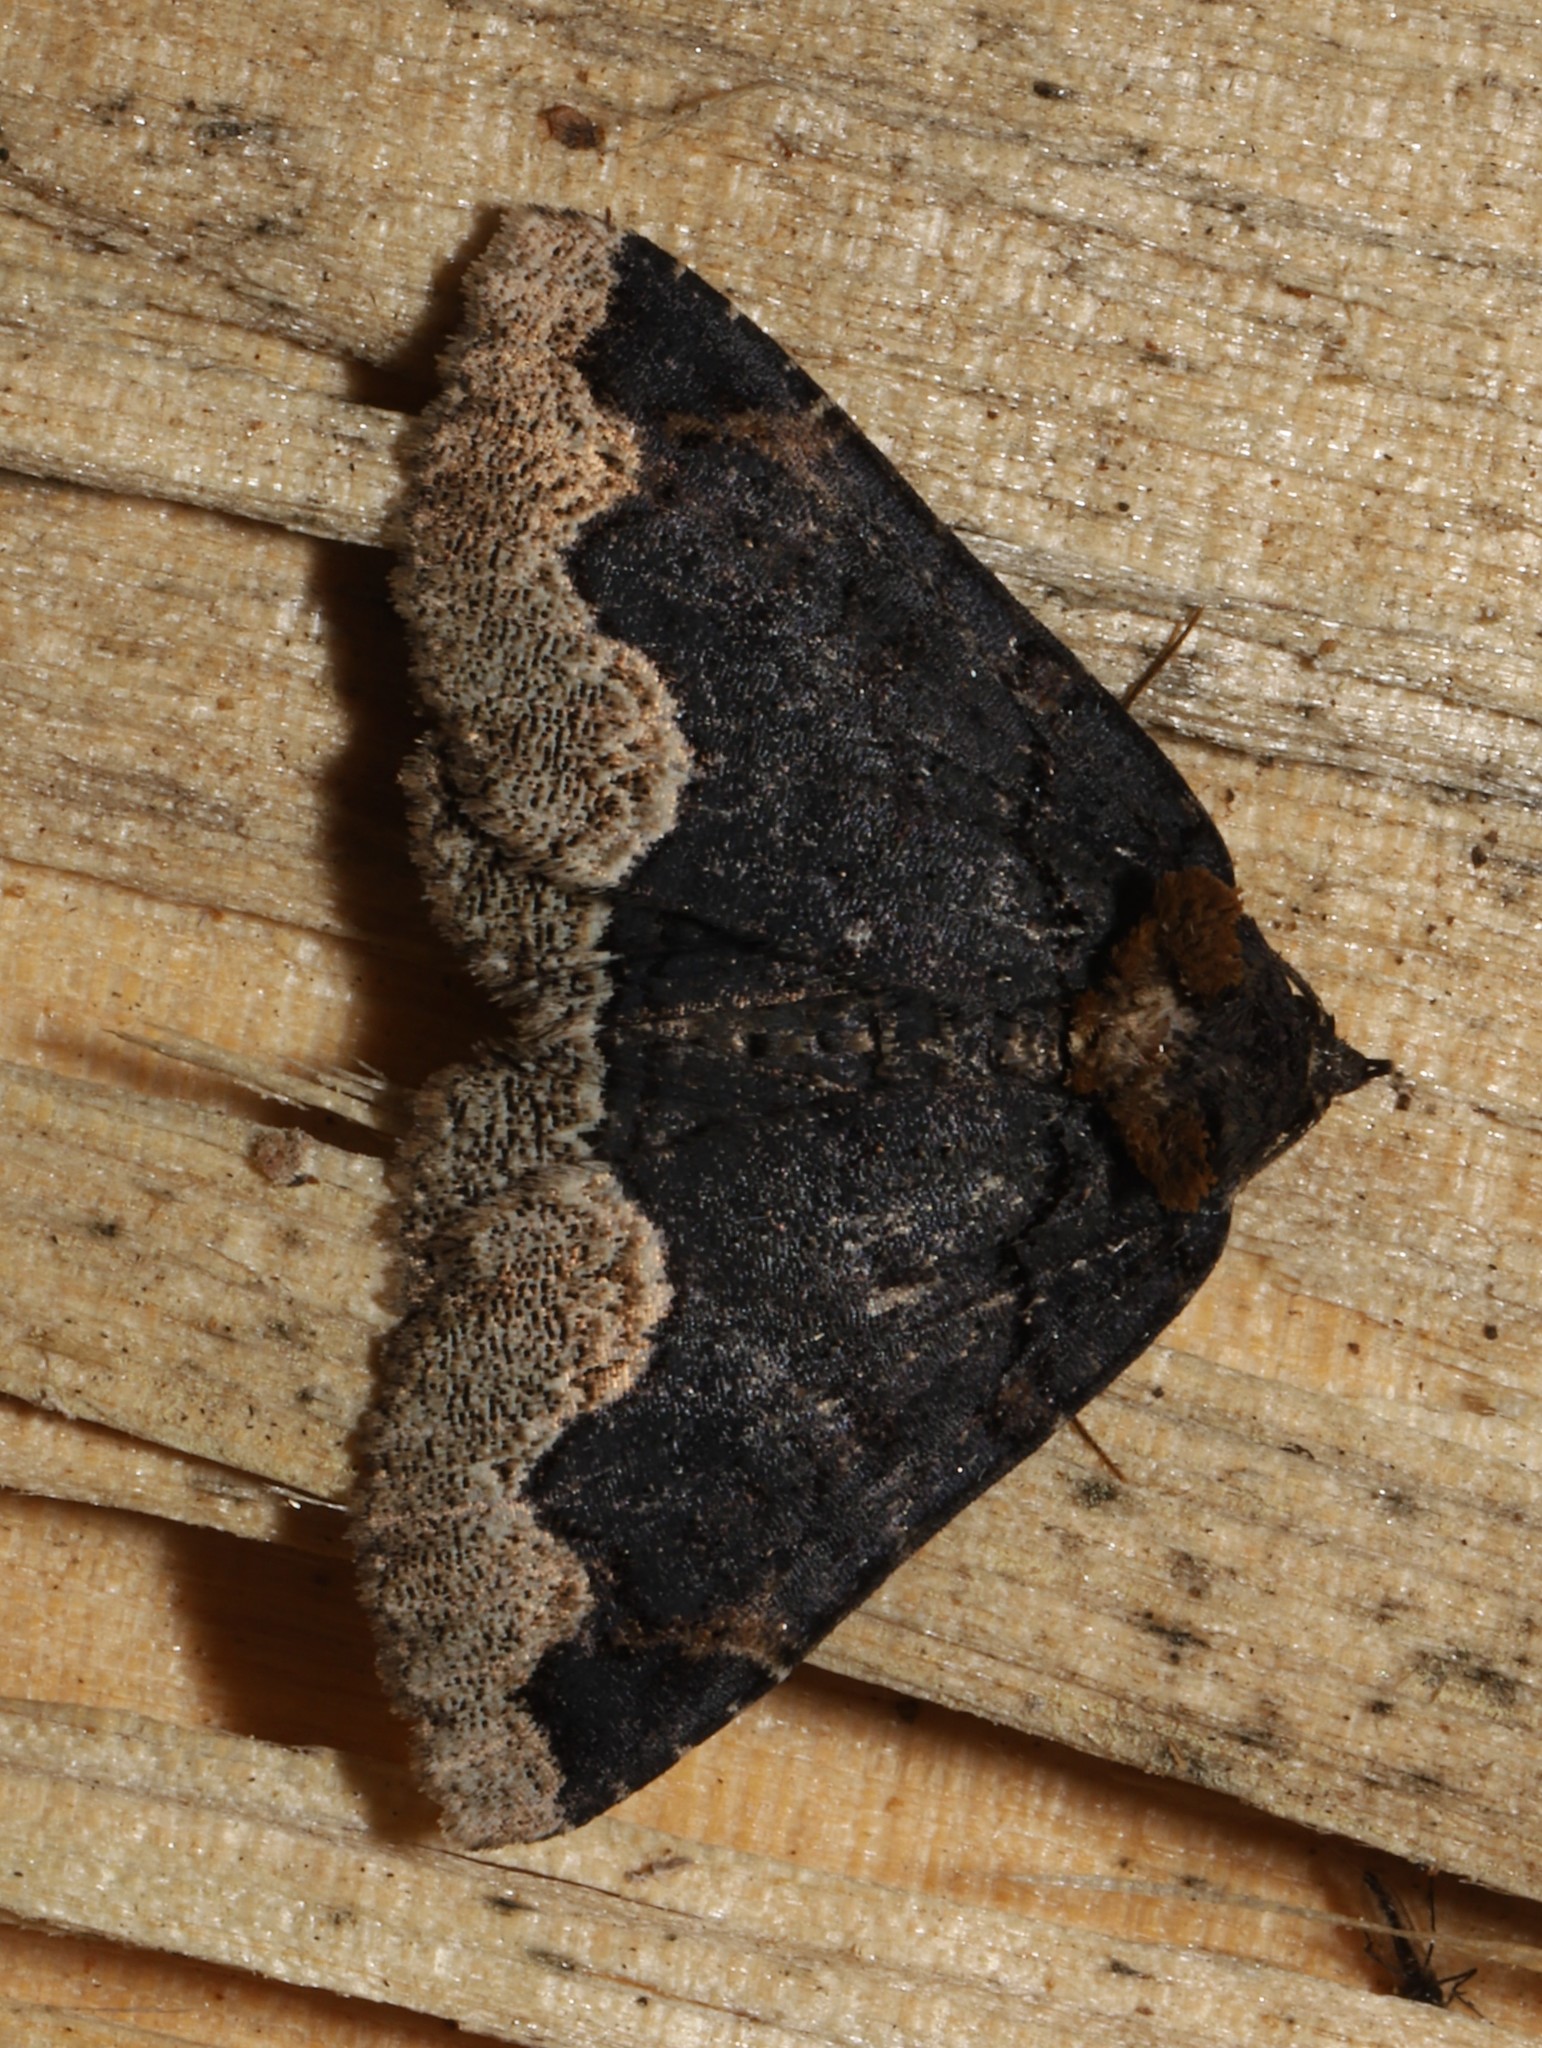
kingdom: Animalia
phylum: Arthropoda
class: Insecta
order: Lepidoptera
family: Erebidae
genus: Zale
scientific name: Zale horrida
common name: Horrid zale moth
